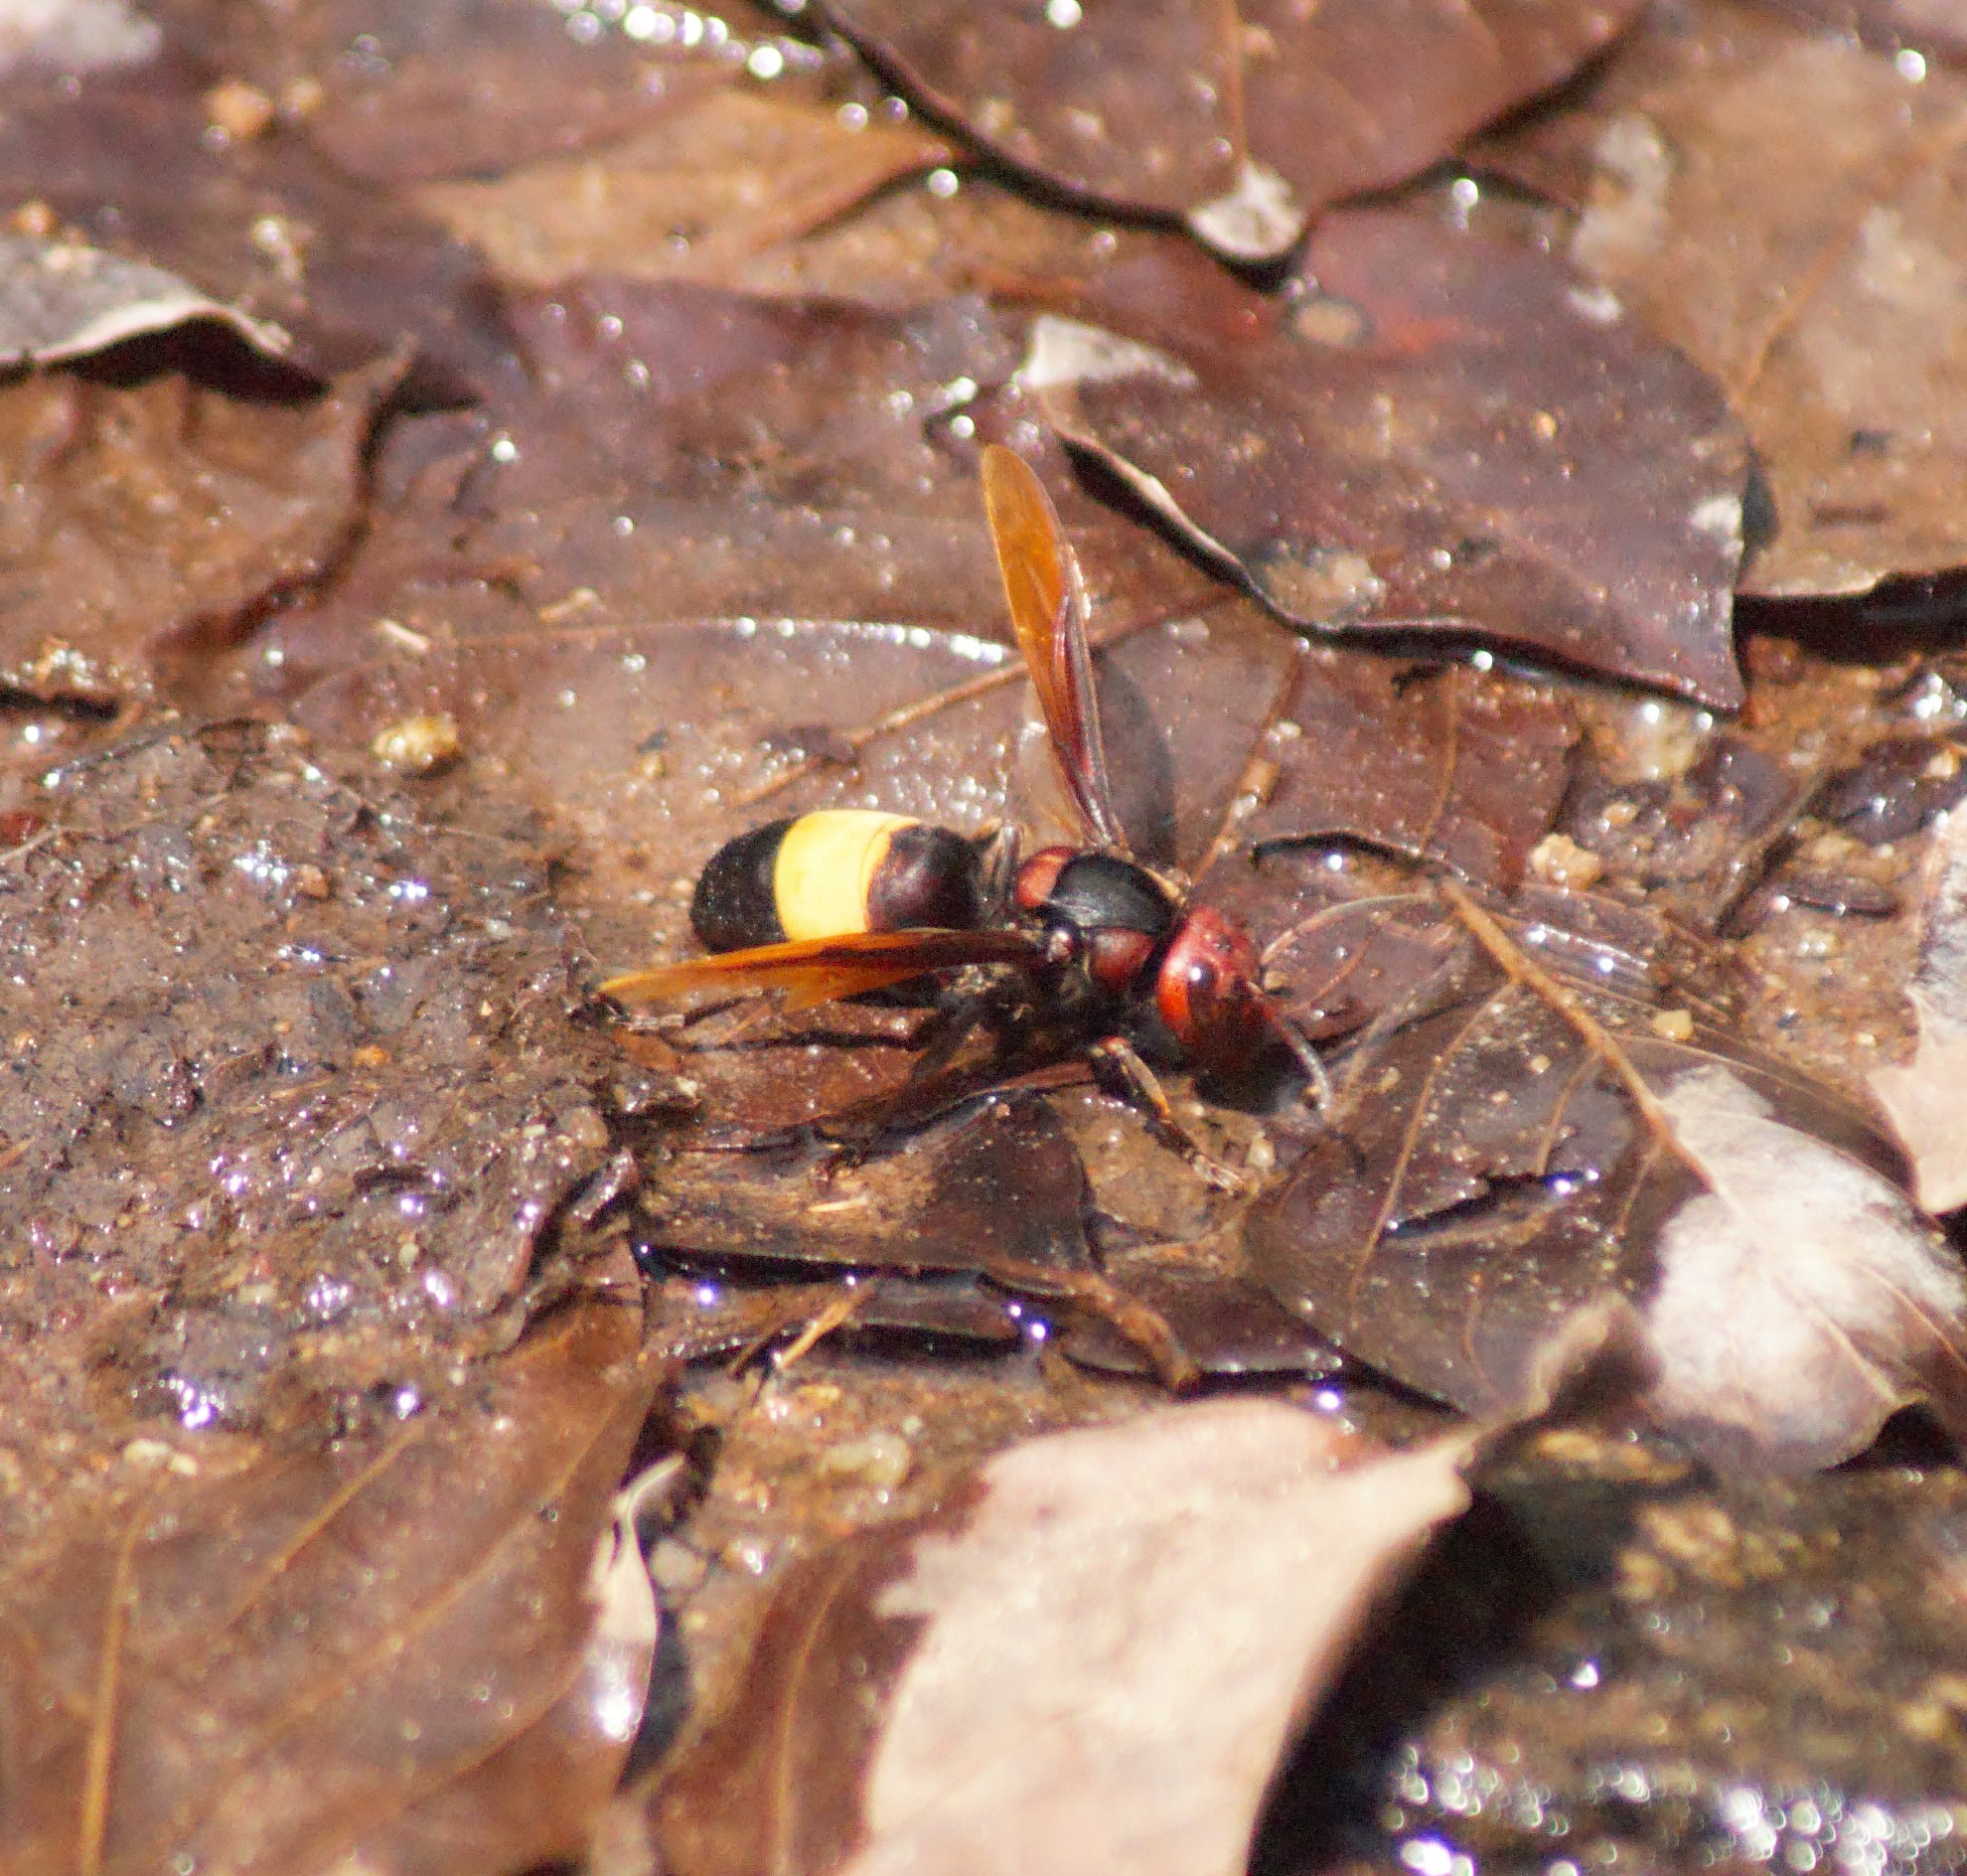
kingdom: Animalia
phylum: Arthropoda
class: Insecta
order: Hymenoptera
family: Vespidae
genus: Vespa
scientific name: Vespa tropica
